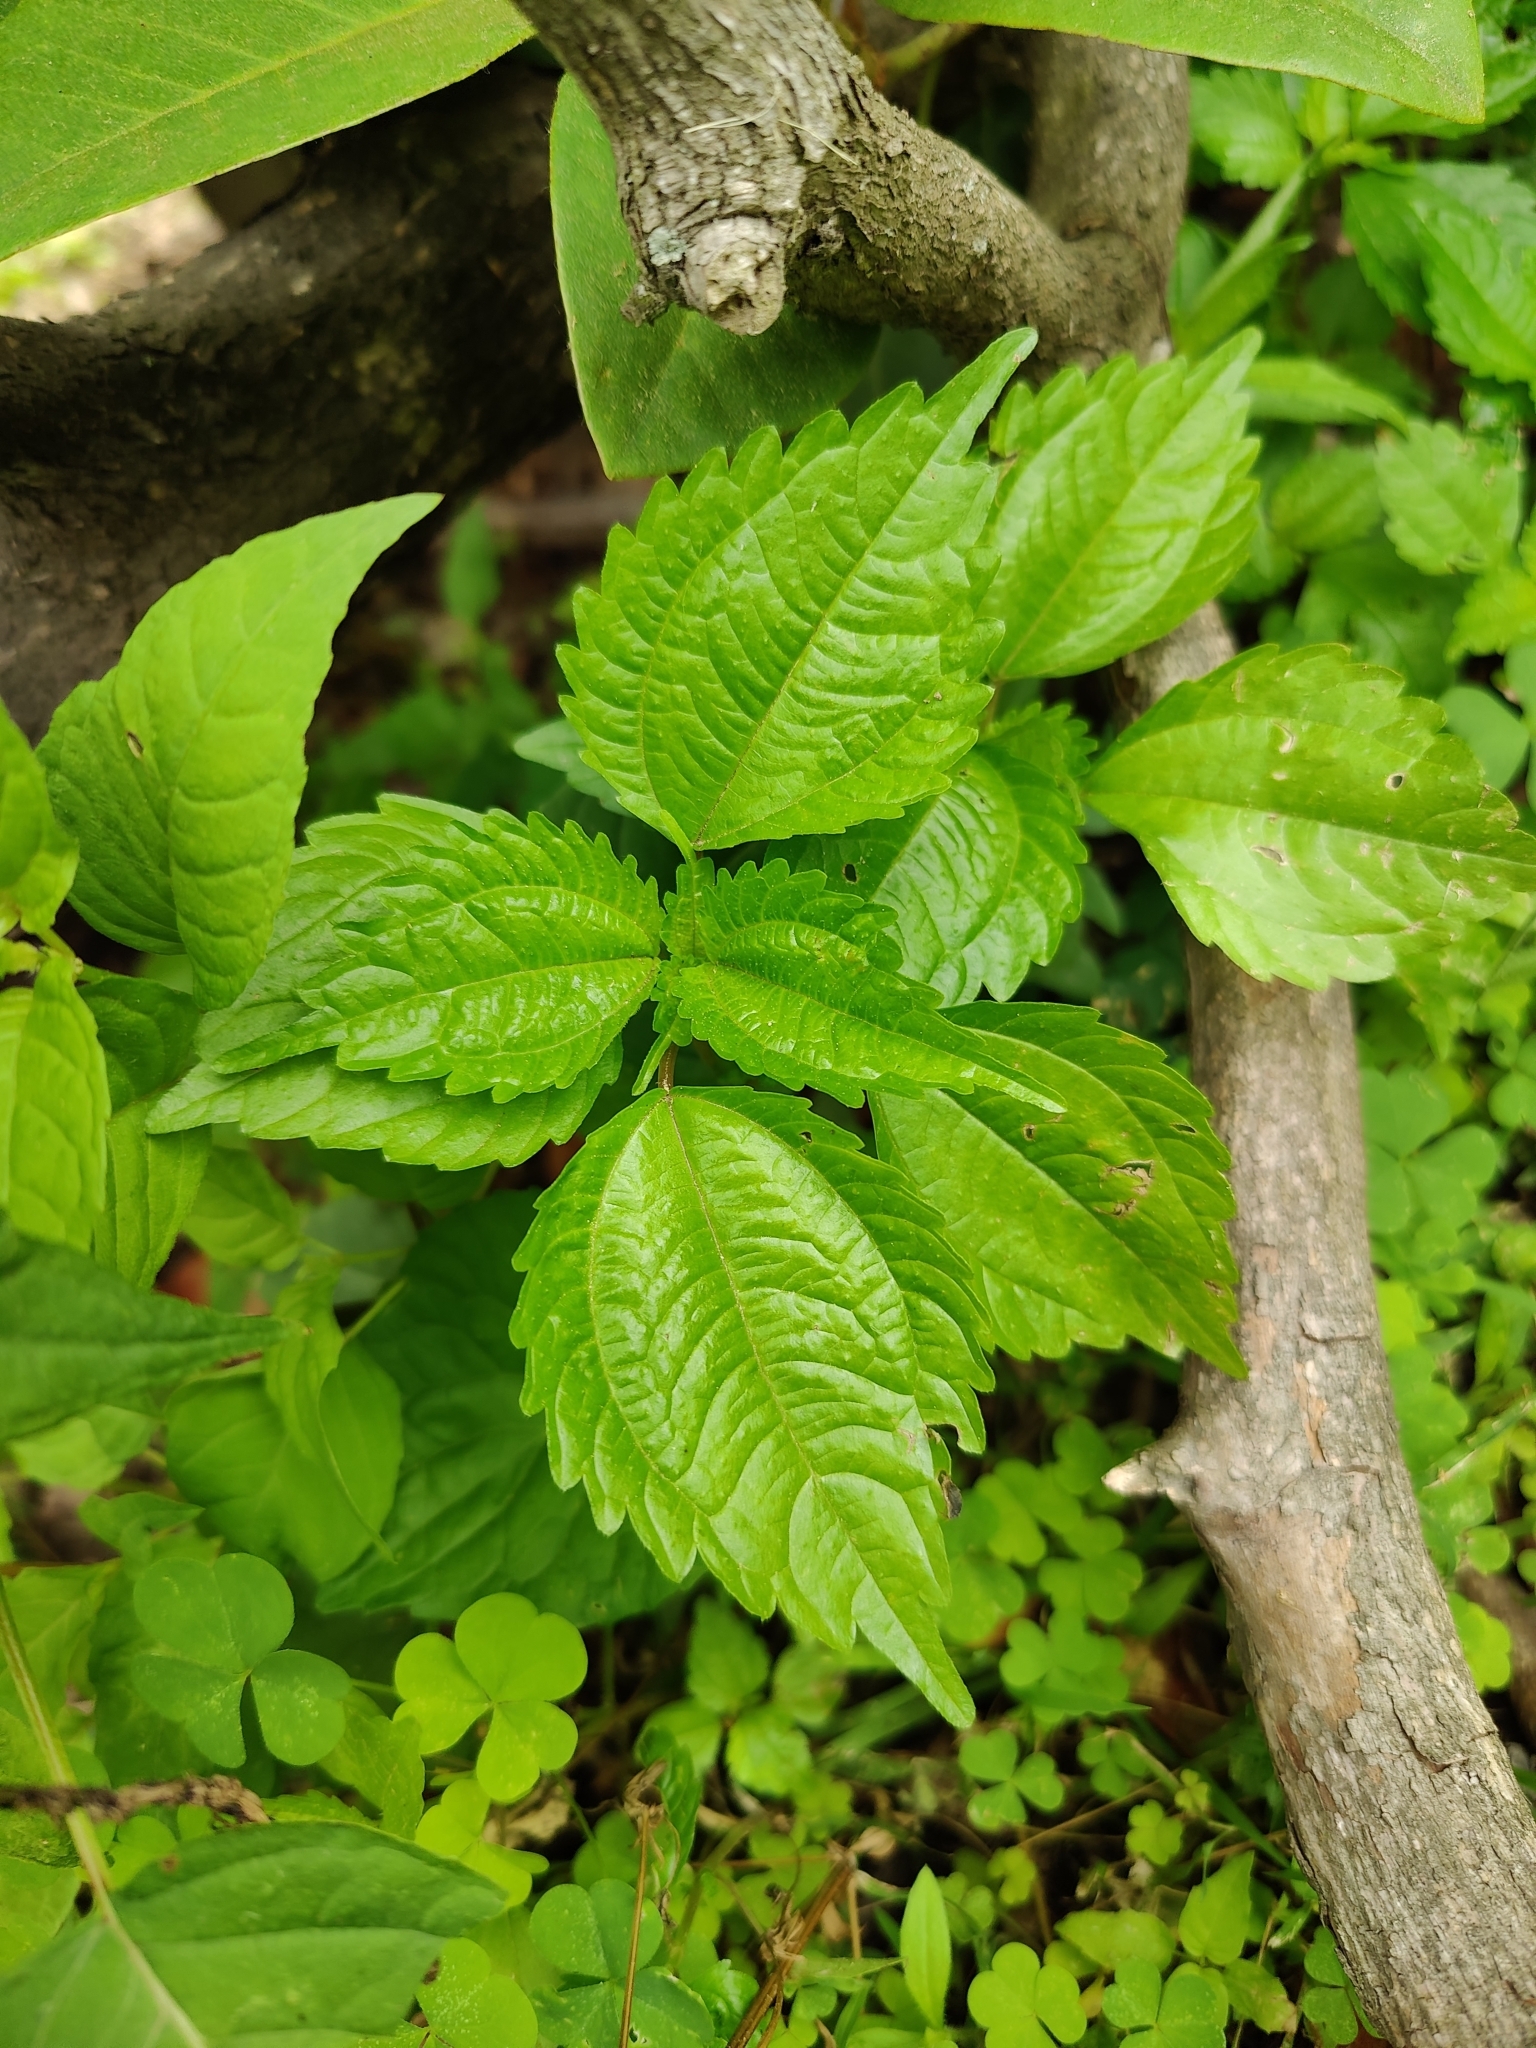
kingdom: Plantae
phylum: Tracheophyta
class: Magnoliopsida
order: Rosales
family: Urticaceae
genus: Pilea
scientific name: Pilea pumila
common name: Clearweed
